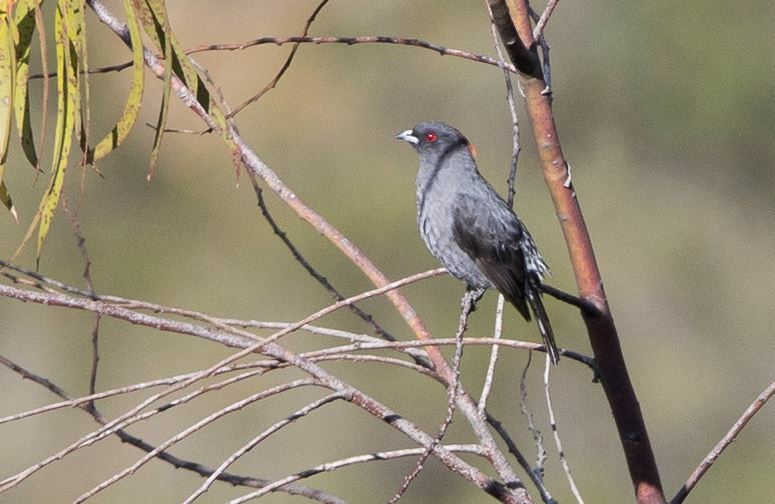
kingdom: Animalia
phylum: Chordata
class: Aves
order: Passeriformes
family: Cotingidae
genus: Ampelion
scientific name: Ampelion rubrocristatus
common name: Red-crested cotinga
